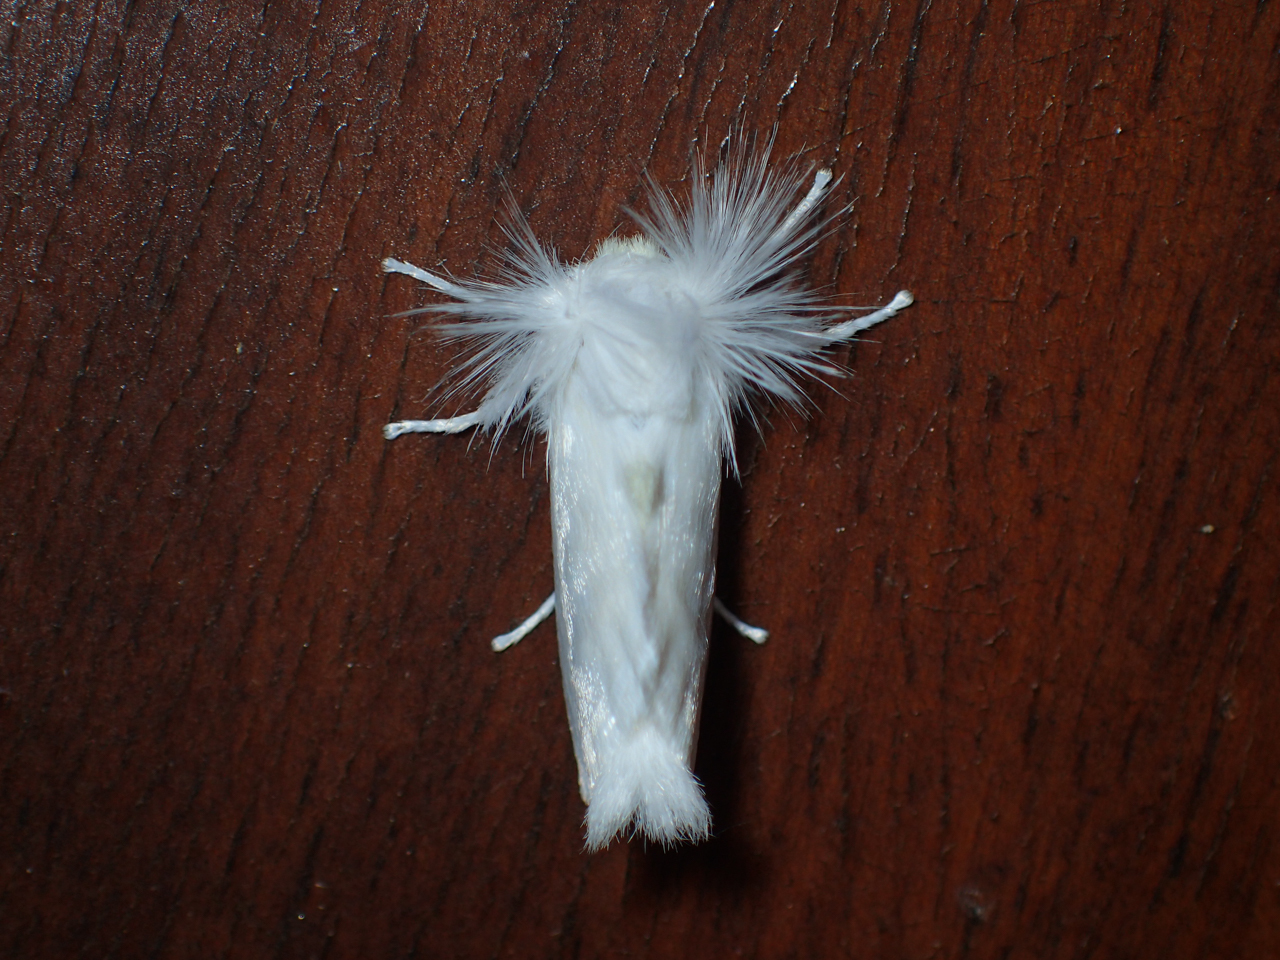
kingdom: Animalia
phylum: Arthropoda
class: Insecta
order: Lepidoptera
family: Megalopygidae
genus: Norape
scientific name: Norape cretata
